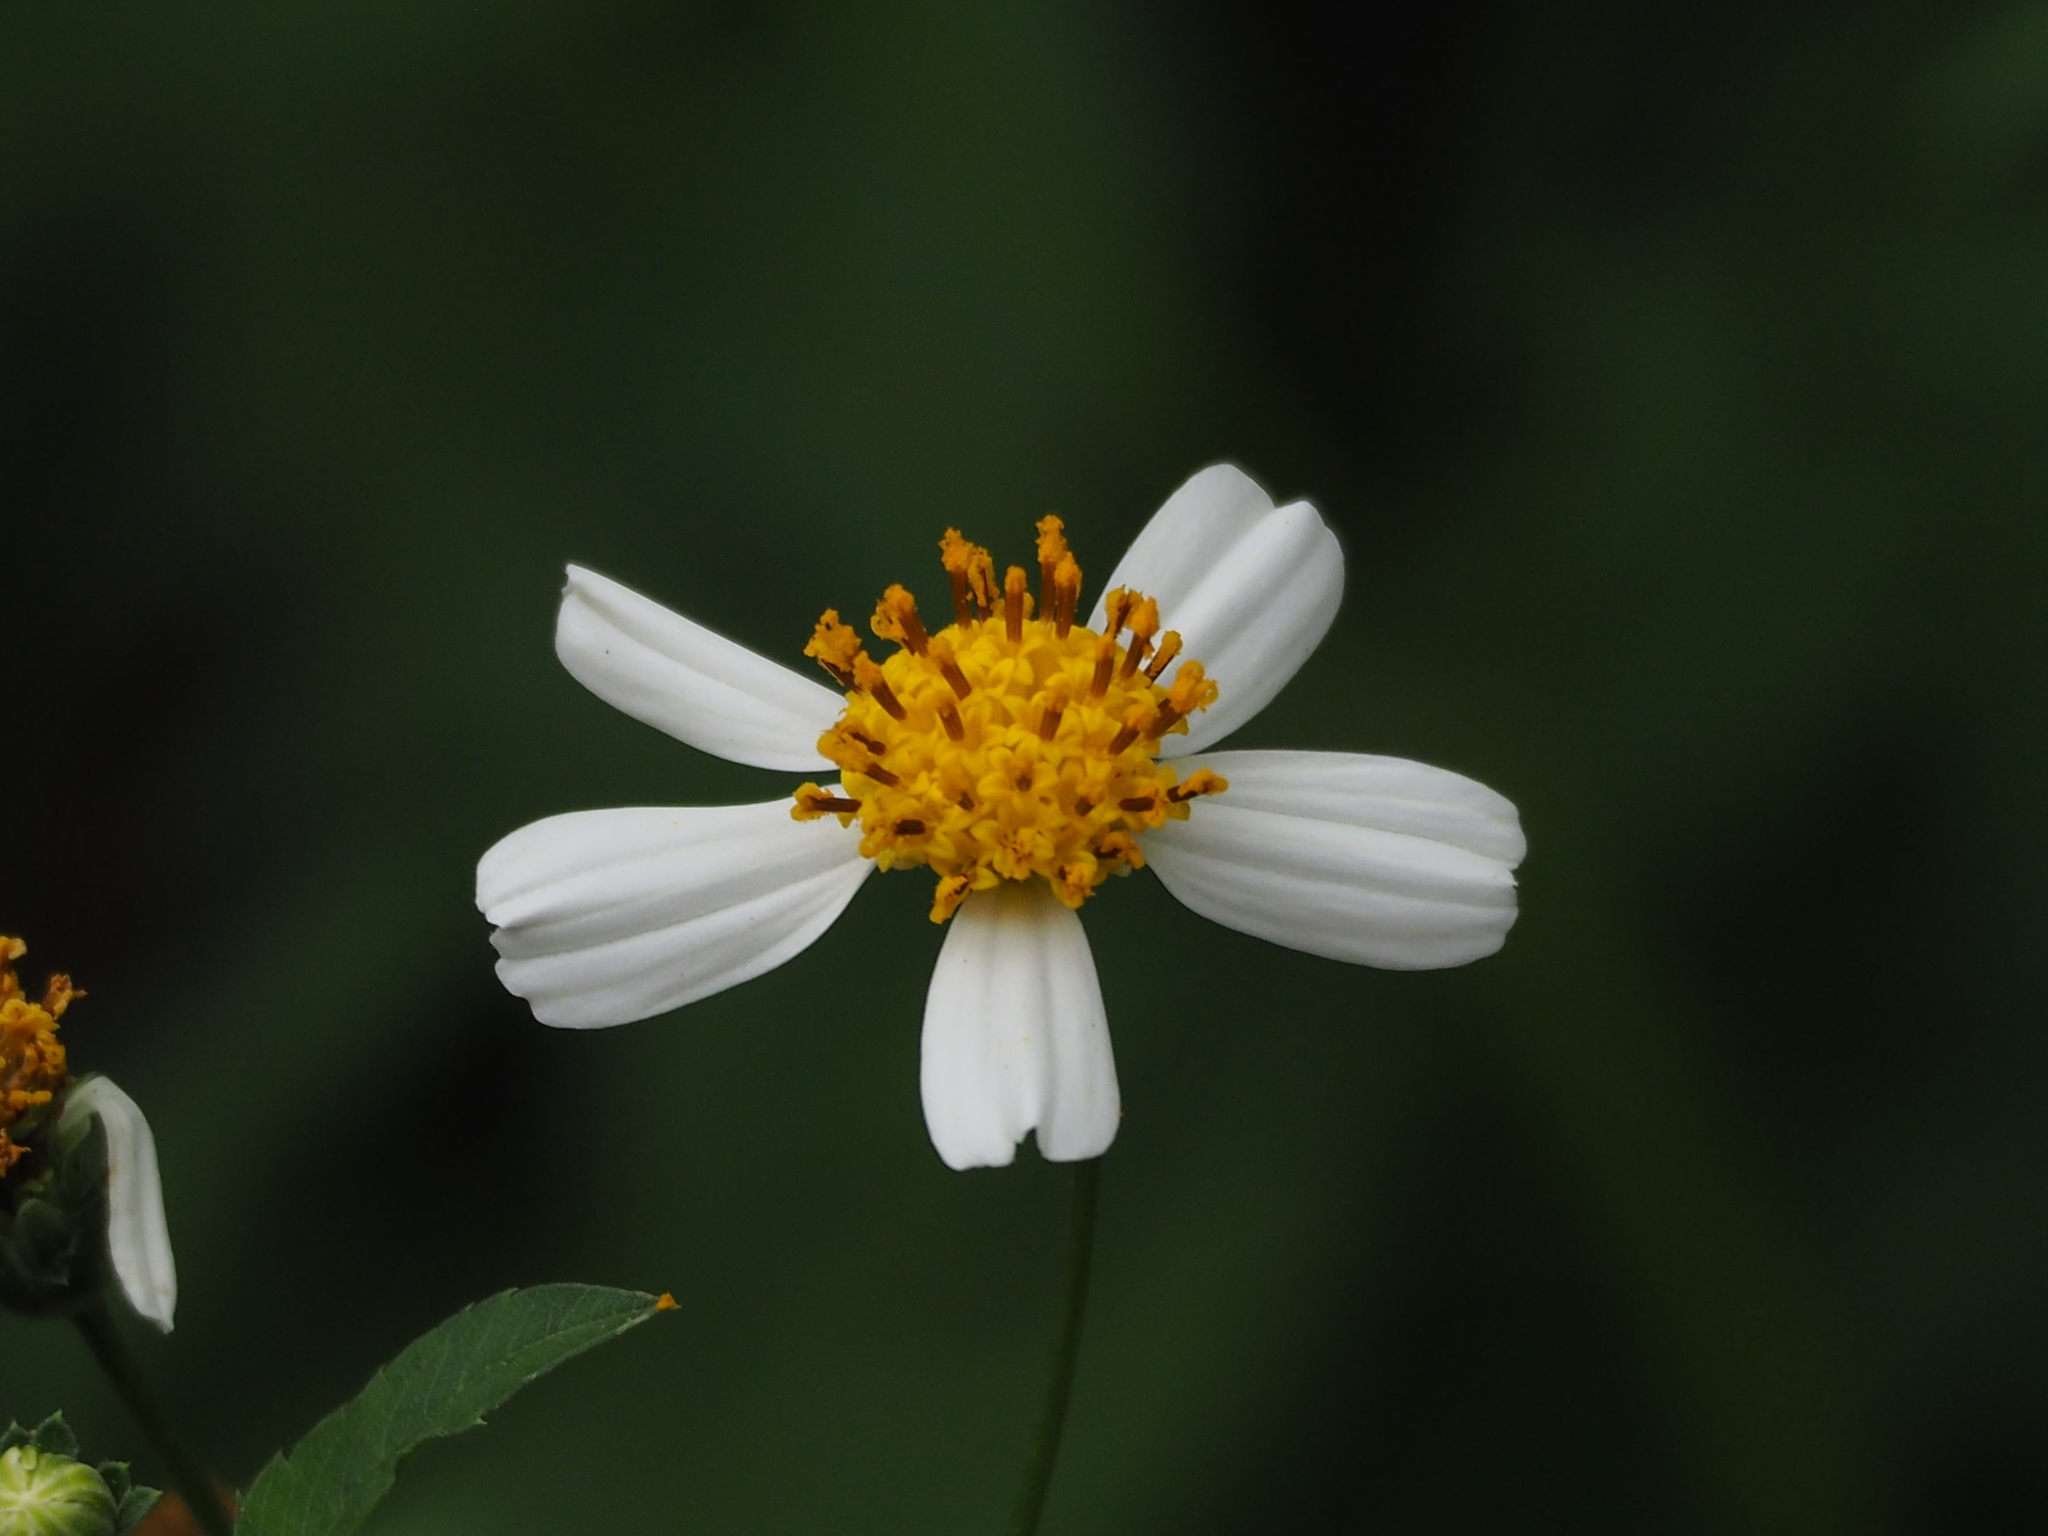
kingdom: Plantae
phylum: Tracheophyta
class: Magnoliopsida
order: Asterales
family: Asteraceae
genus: Bidens
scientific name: Bidens alba
